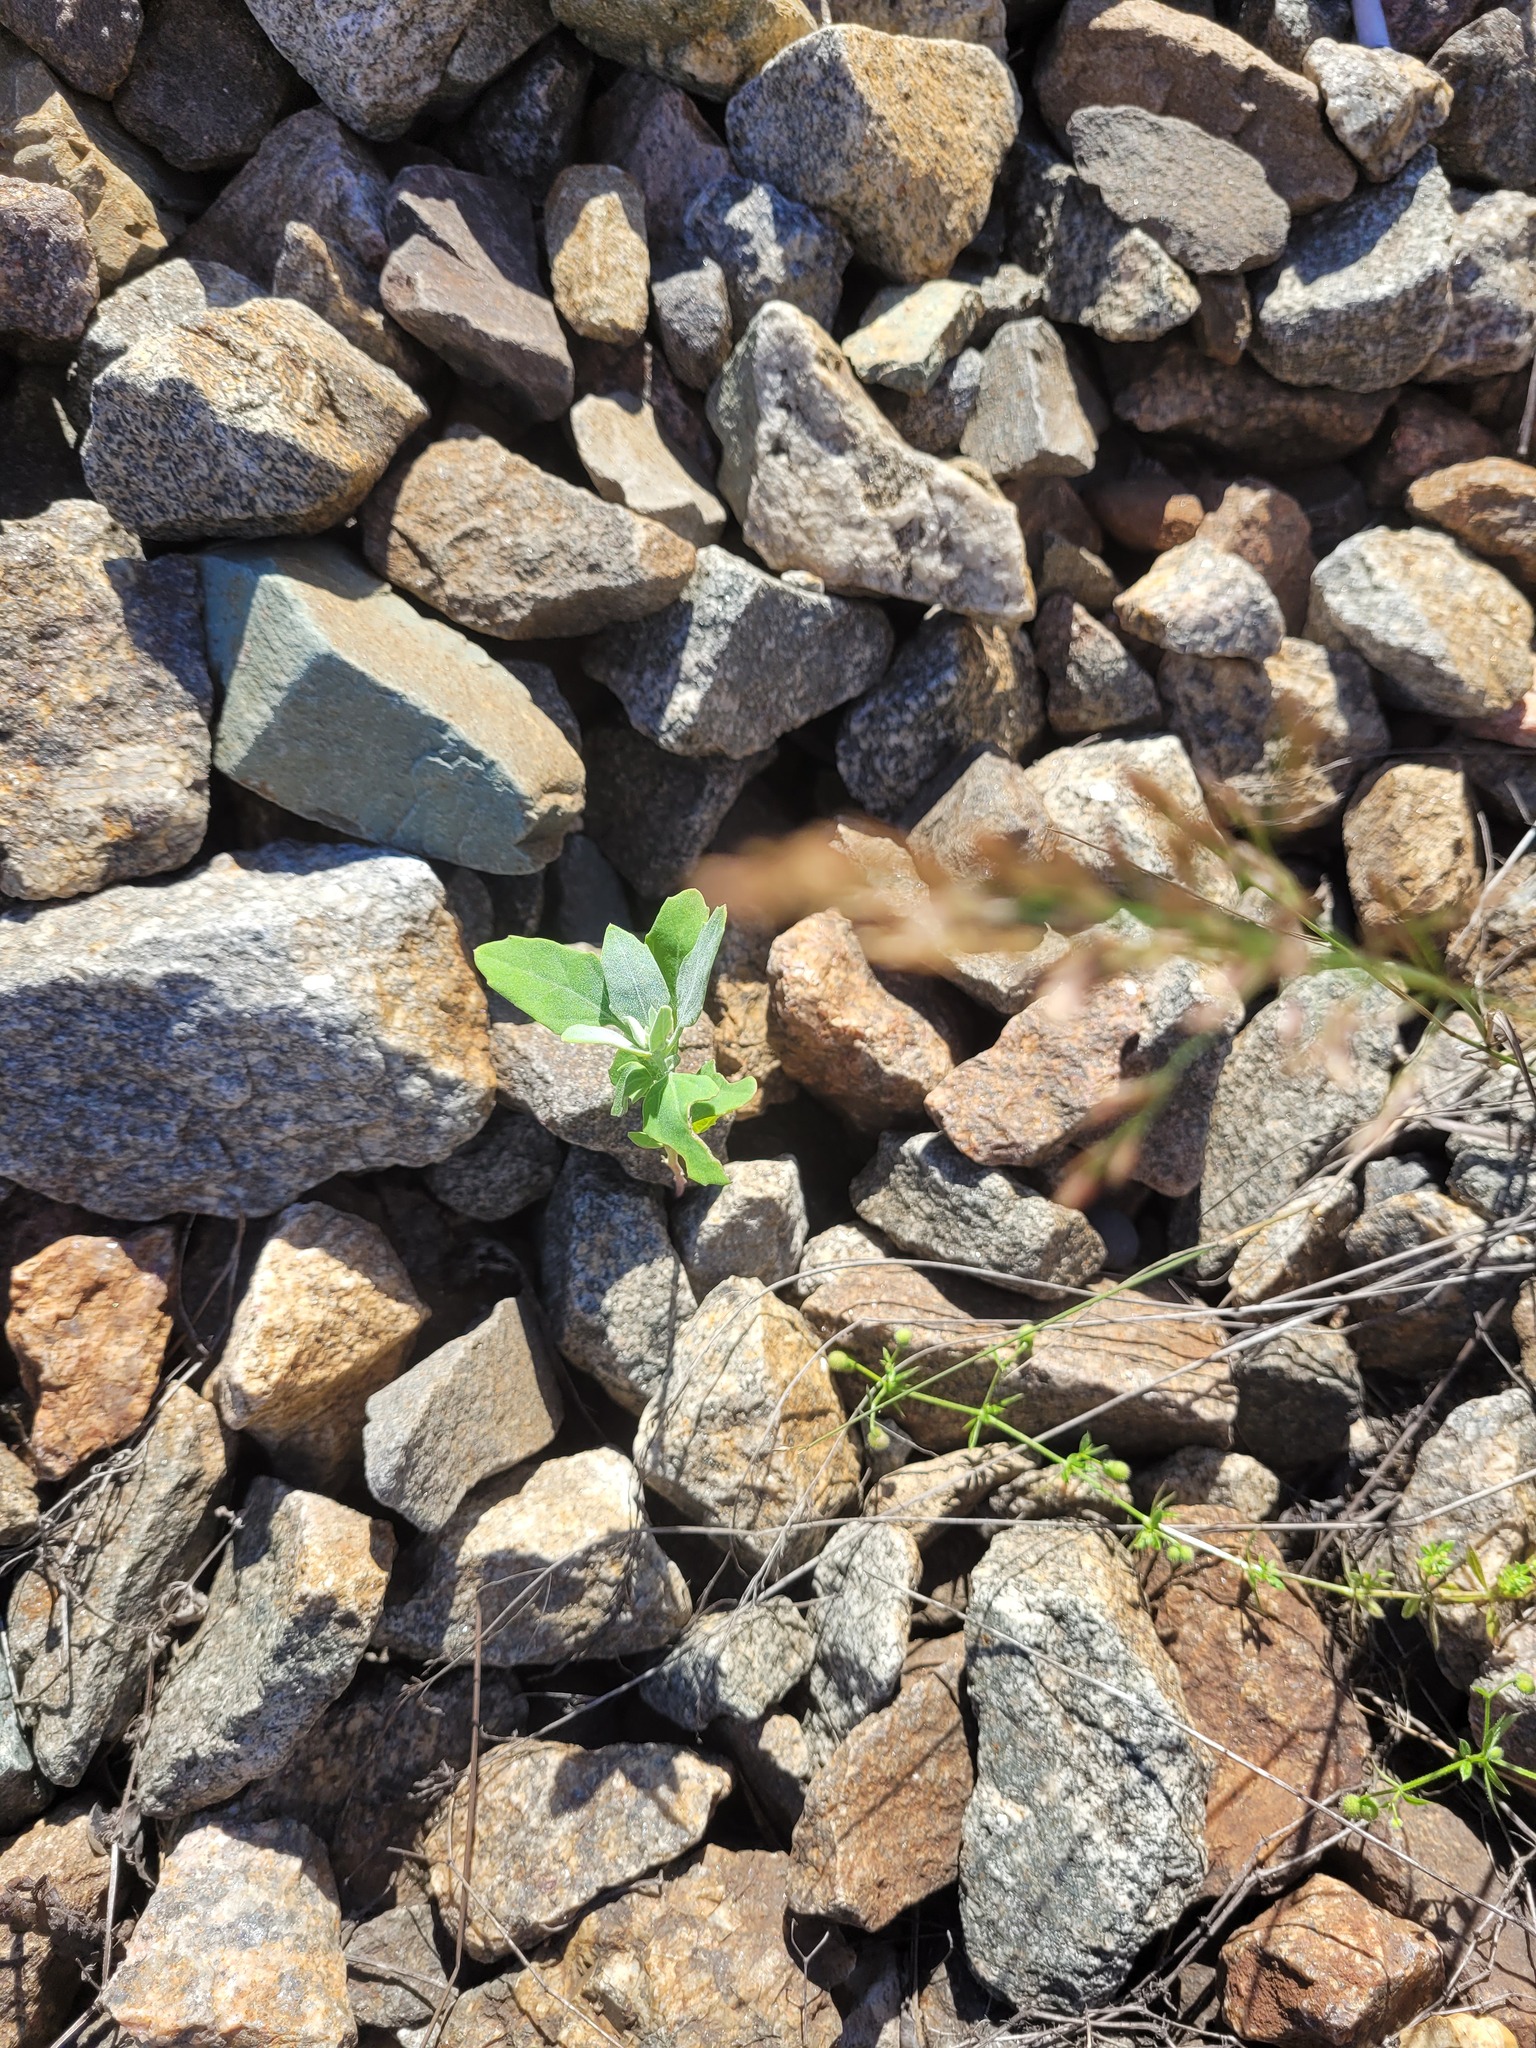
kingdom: Plantae
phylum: Tracheophyta
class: Magnoliopsida
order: Caryophyllales
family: Amaranthaceae
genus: Chenopodium
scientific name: Chenopodium album
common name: Fat-hen
